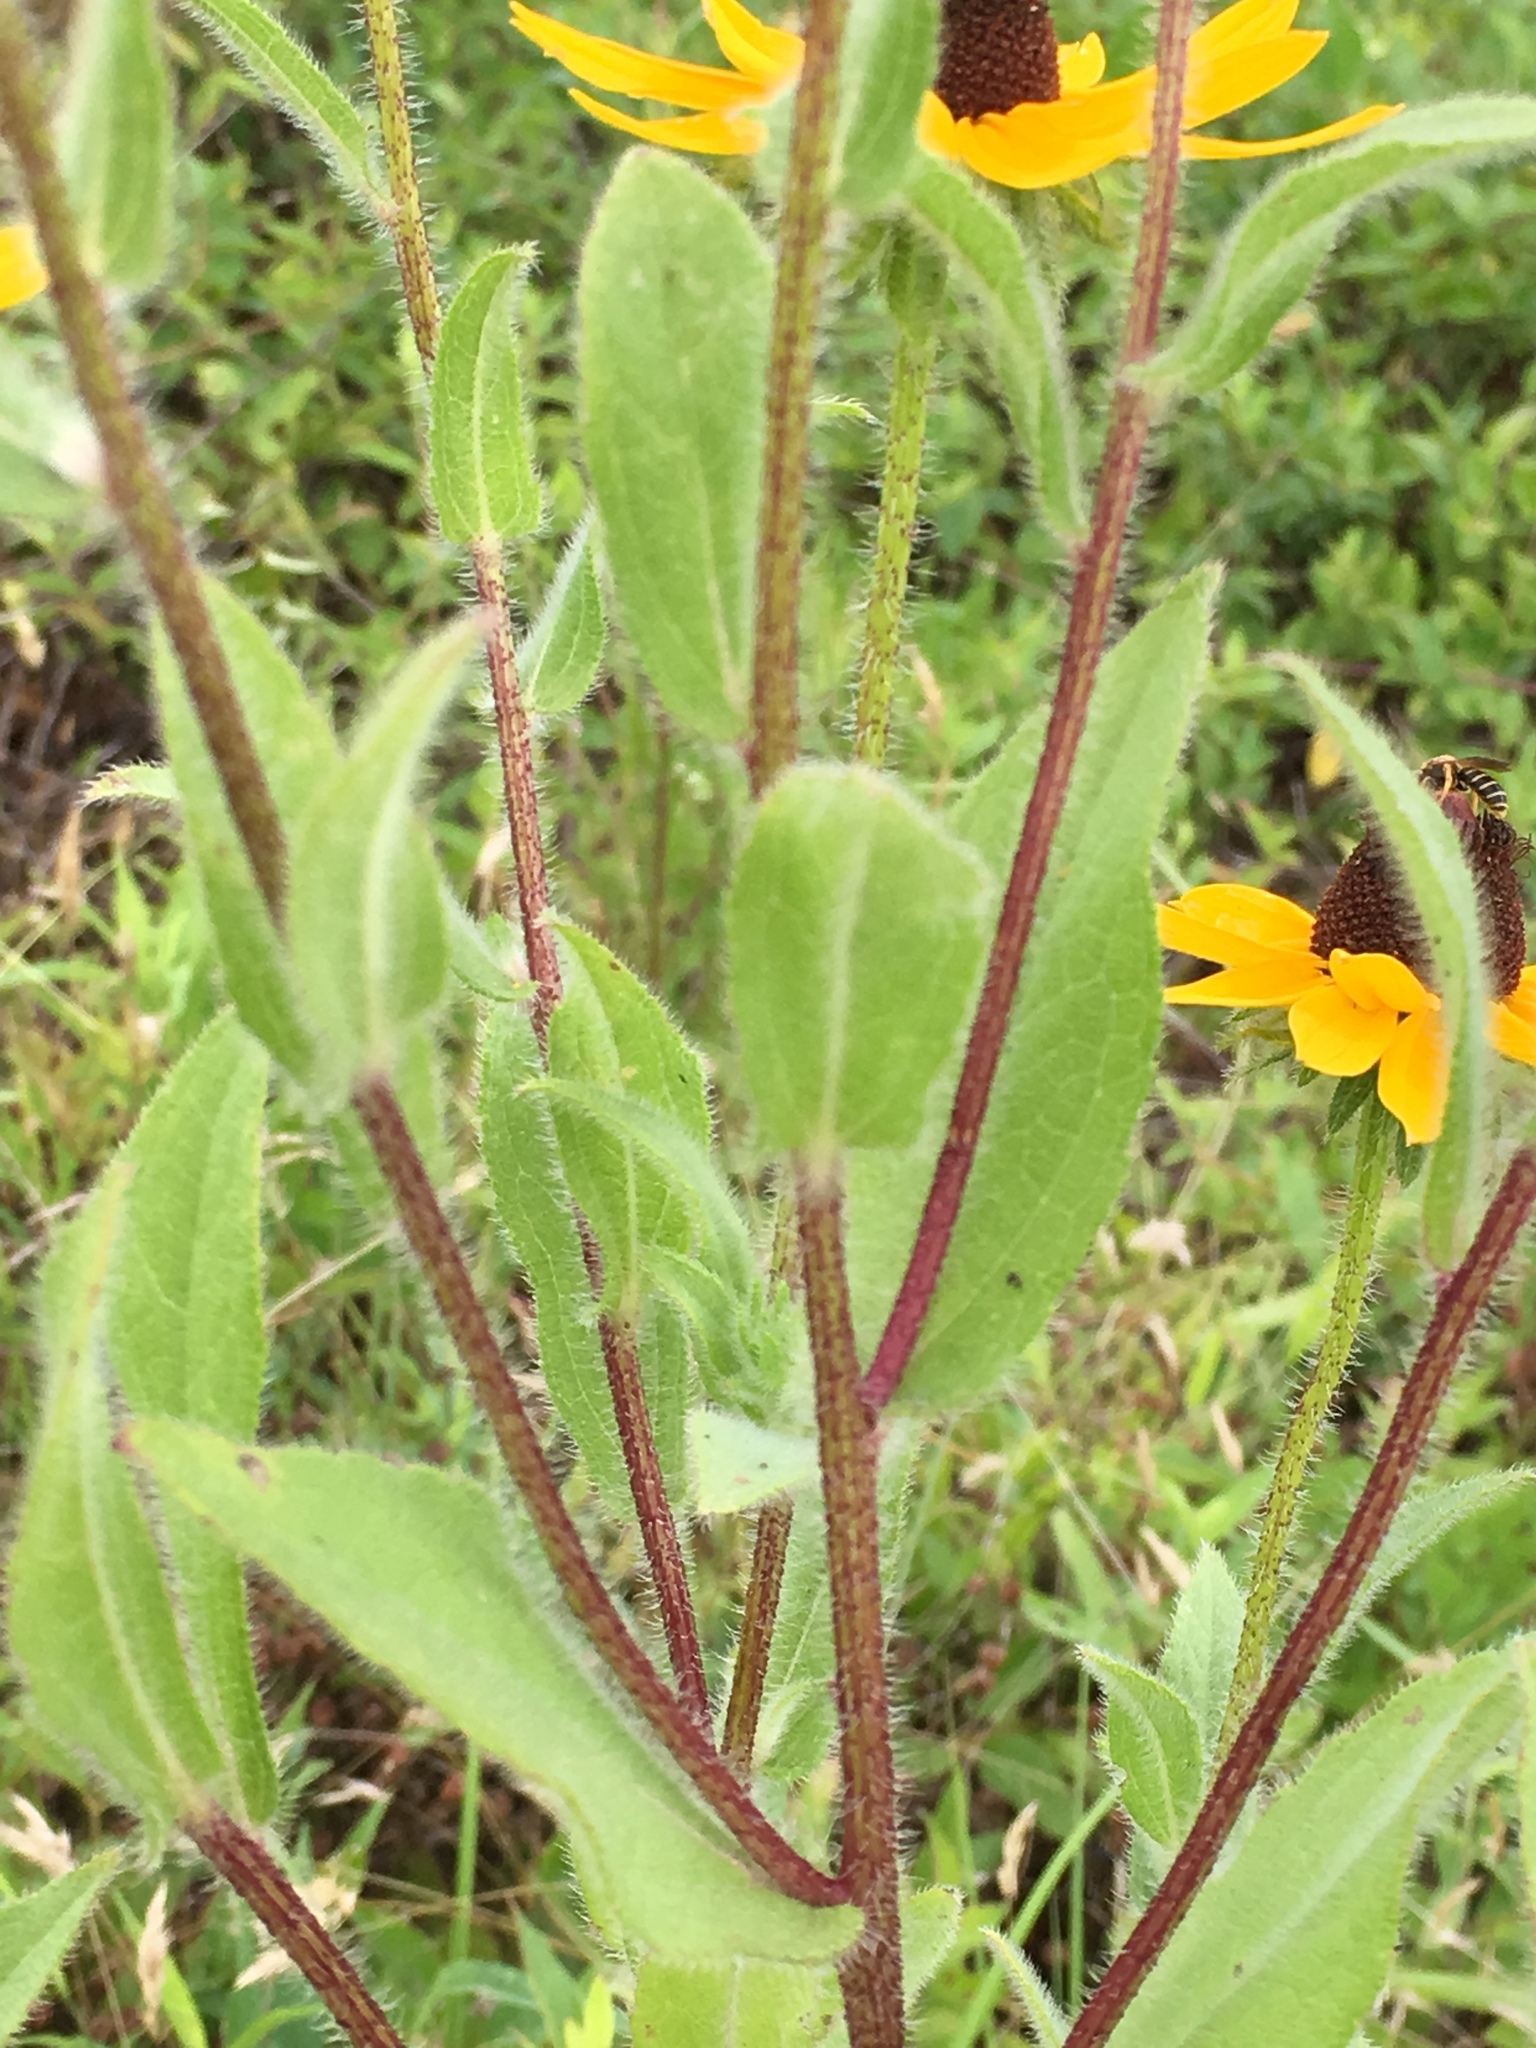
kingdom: Plantae
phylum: Tracheophyta
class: Magnoliopsida
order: Asterales
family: Asteraceae
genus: Rudbeckia
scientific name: Rudbeckia hirta
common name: Black-eyed-susan
